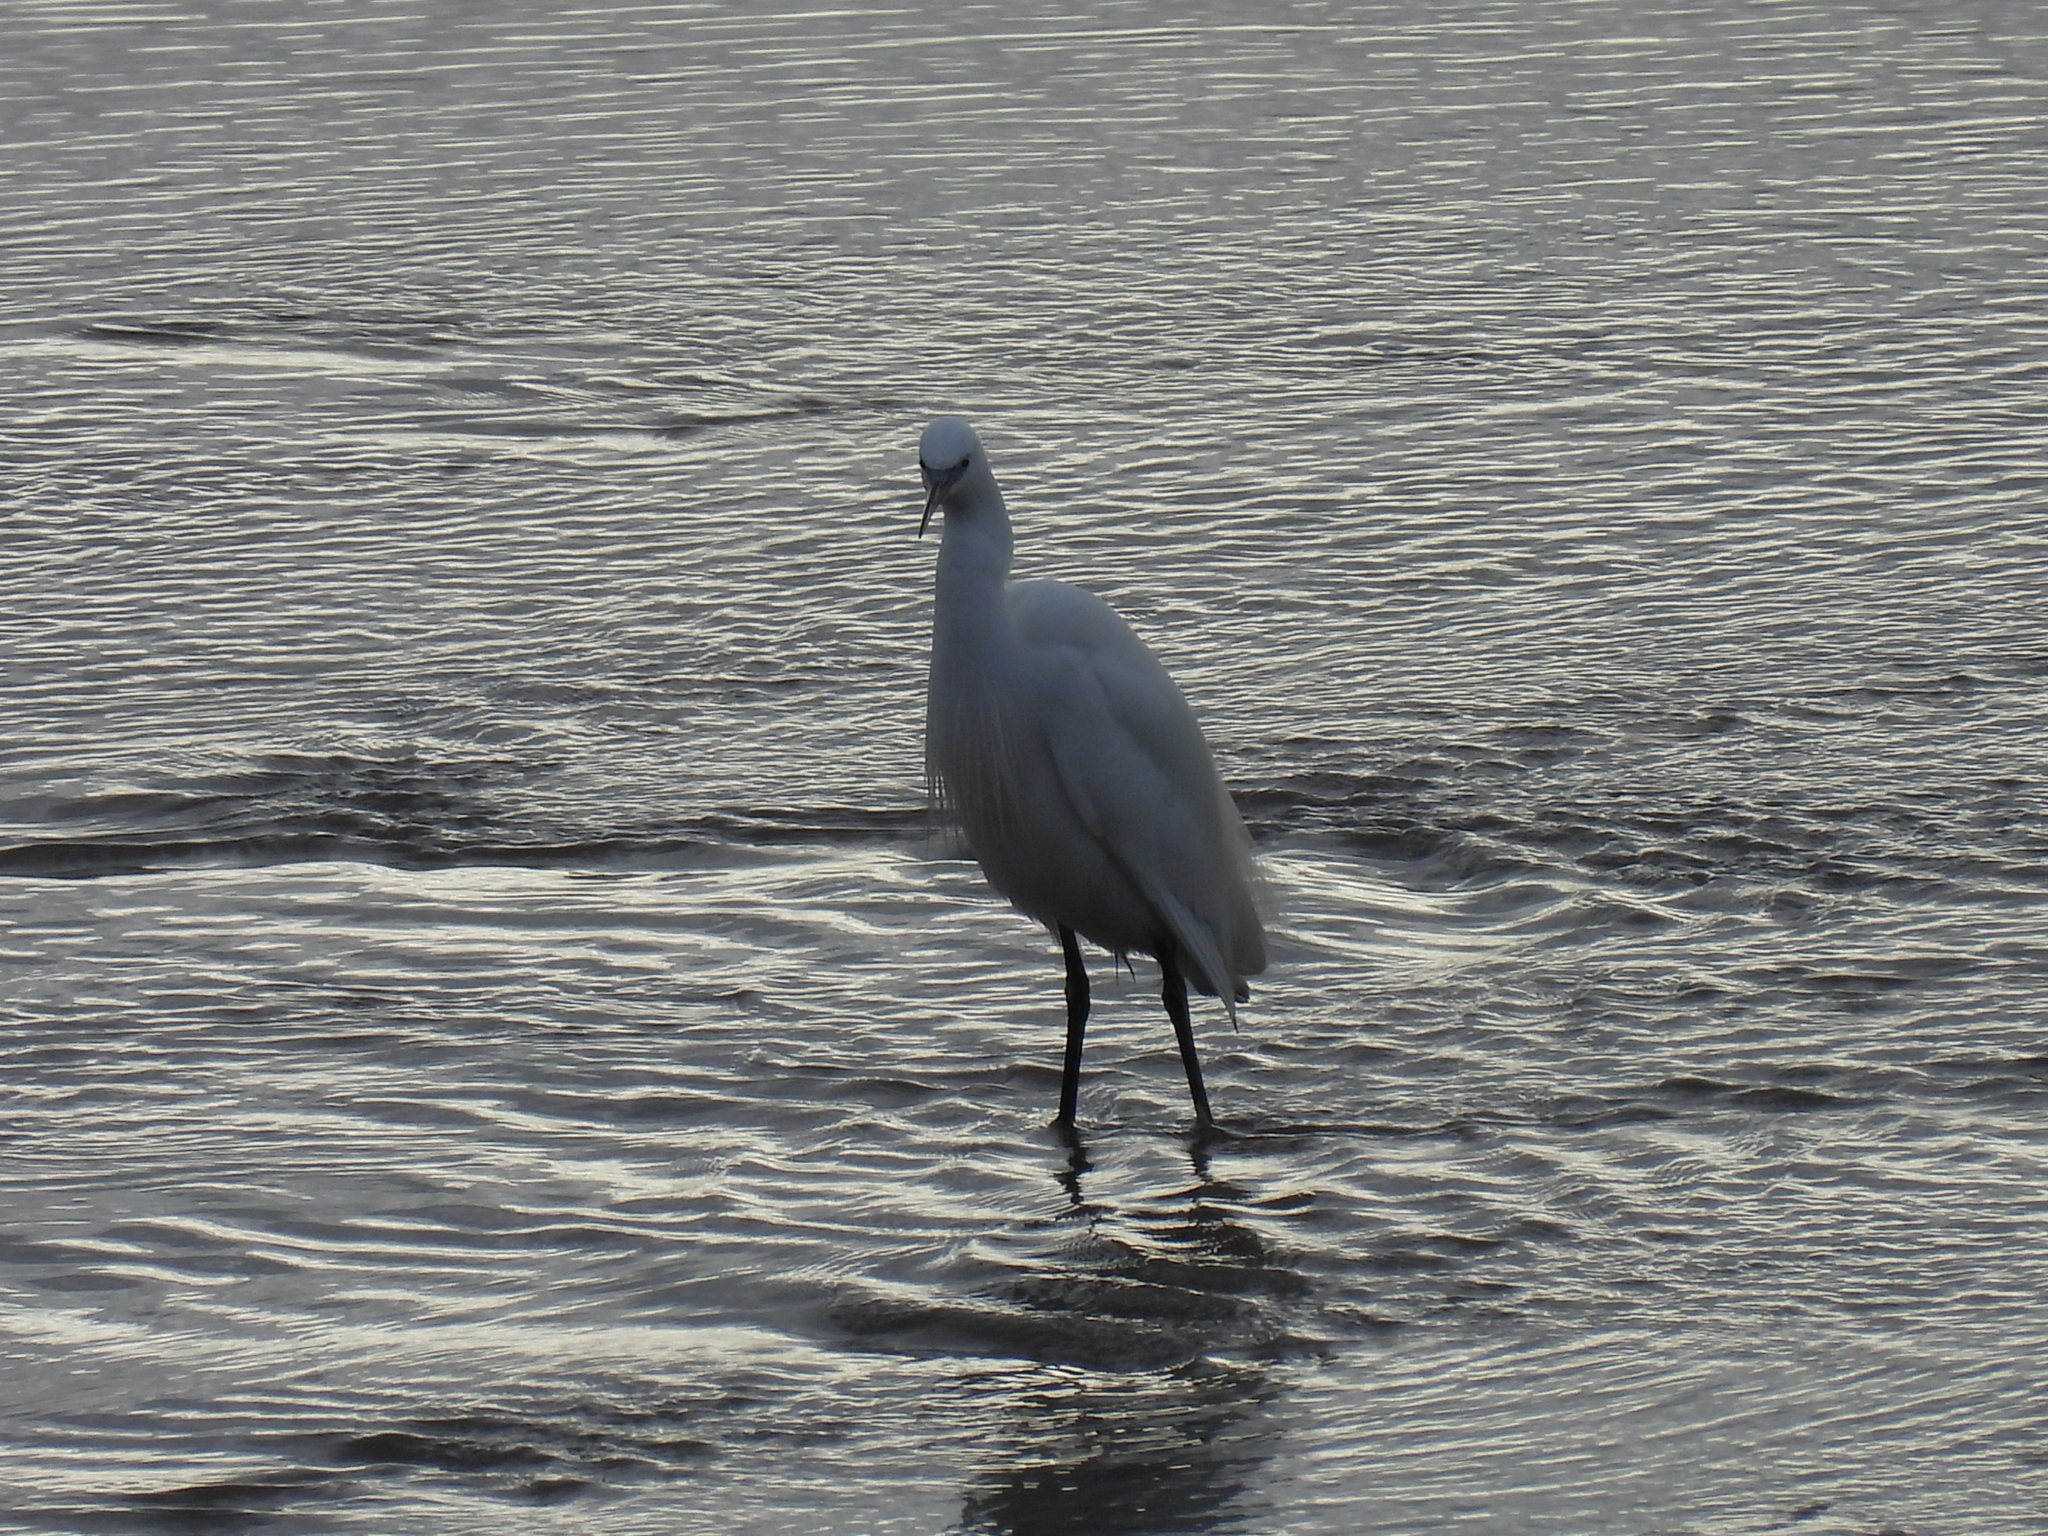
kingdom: Animalia
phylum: Chordata
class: Aves
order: Pelecaniformes
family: Ardeidae
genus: Egretta
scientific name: Egretta garzetta
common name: Little egret
